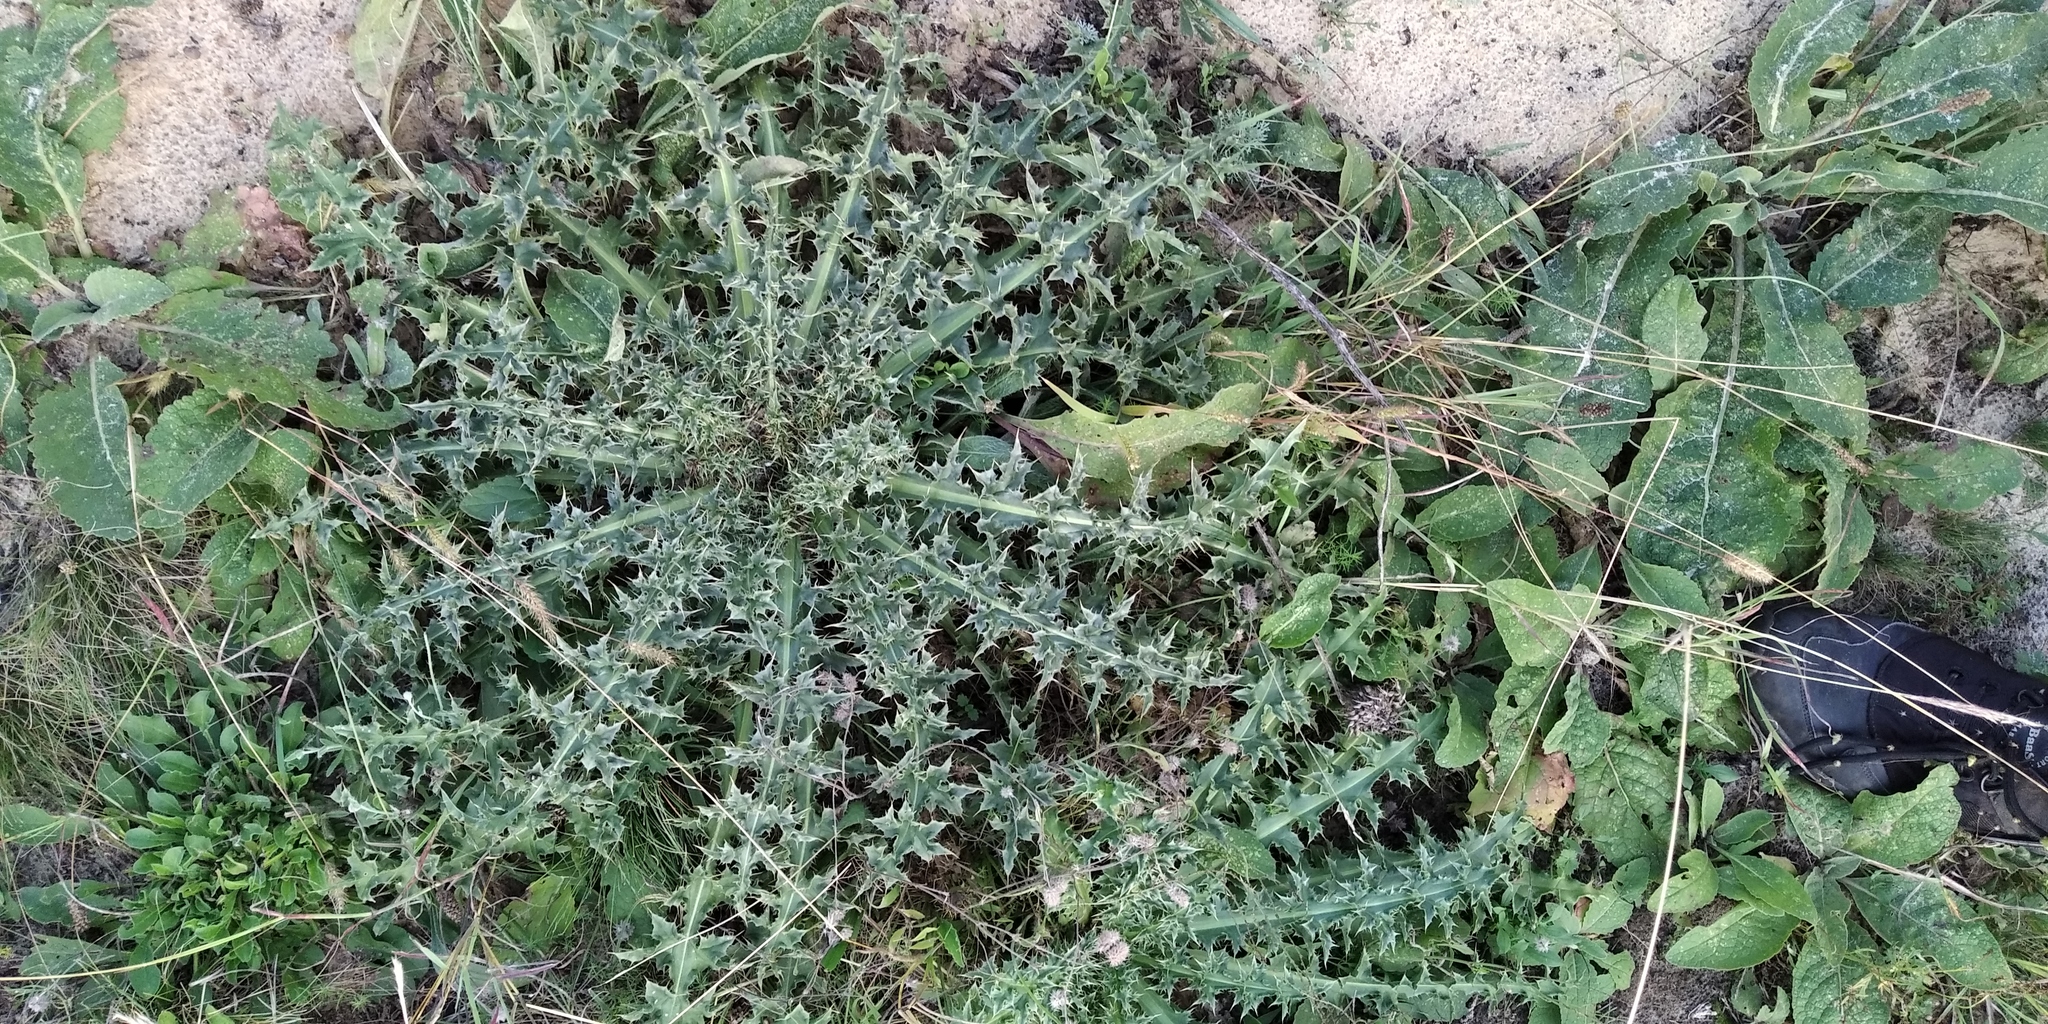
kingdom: Plantae
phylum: Tracheophyta
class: Magnoliopsida
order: Asterales
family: Asteraceae
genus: Carduus
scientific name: Carduus acanthoides
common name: Plumeless thistle
